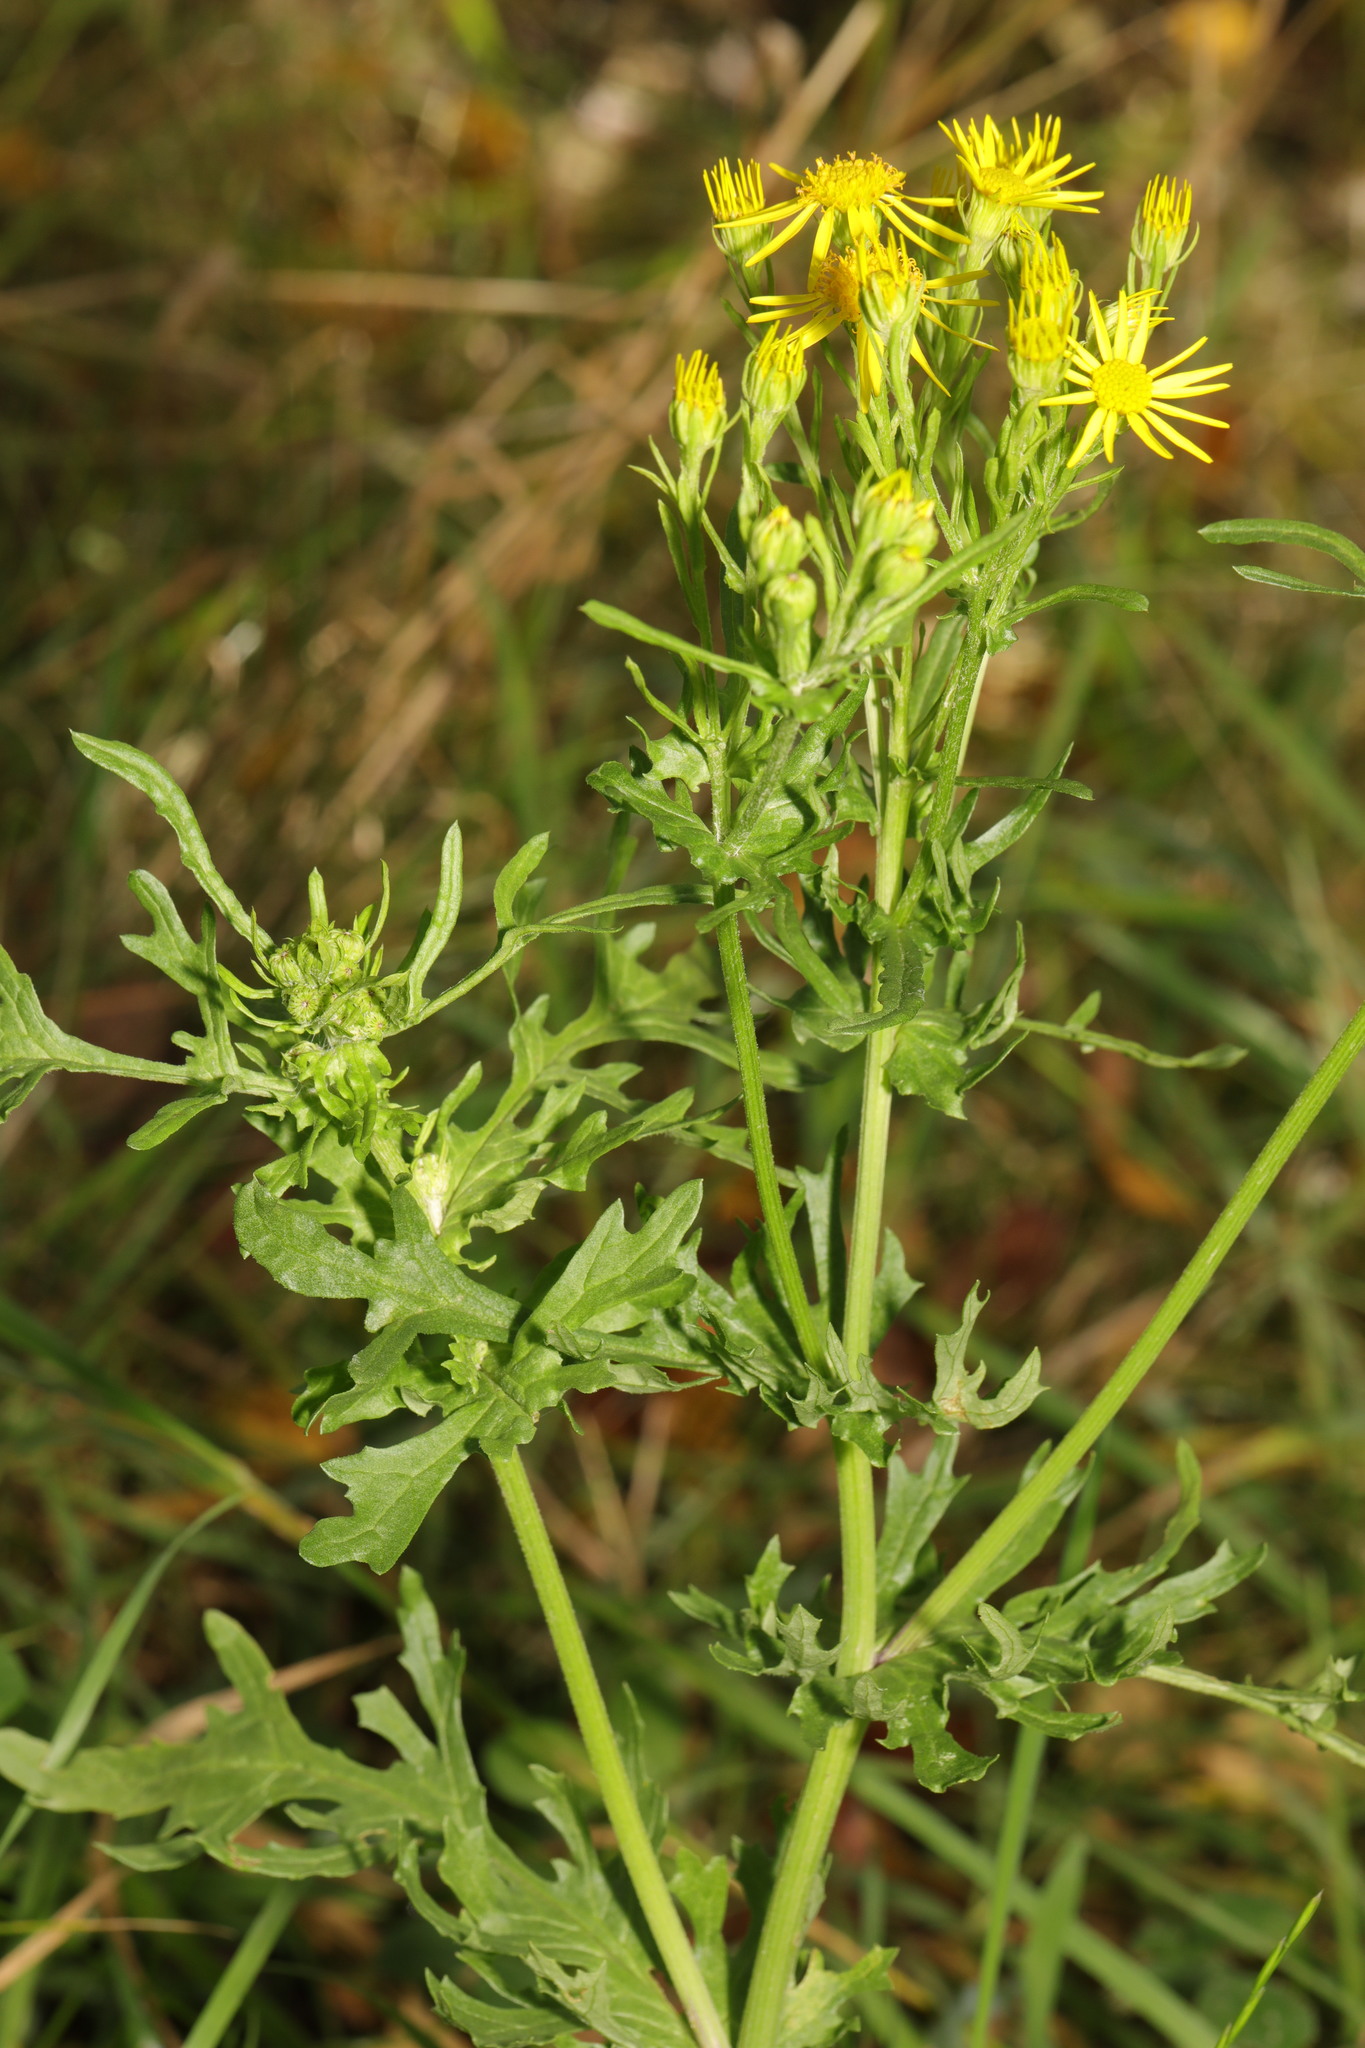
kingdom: Plantae
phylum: Tracheophyta
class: Magnoliopsida
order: Asterales
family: Asteraceae
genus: Jacobaea
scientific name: Jacobaea vulgaris
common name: Stinking willie
